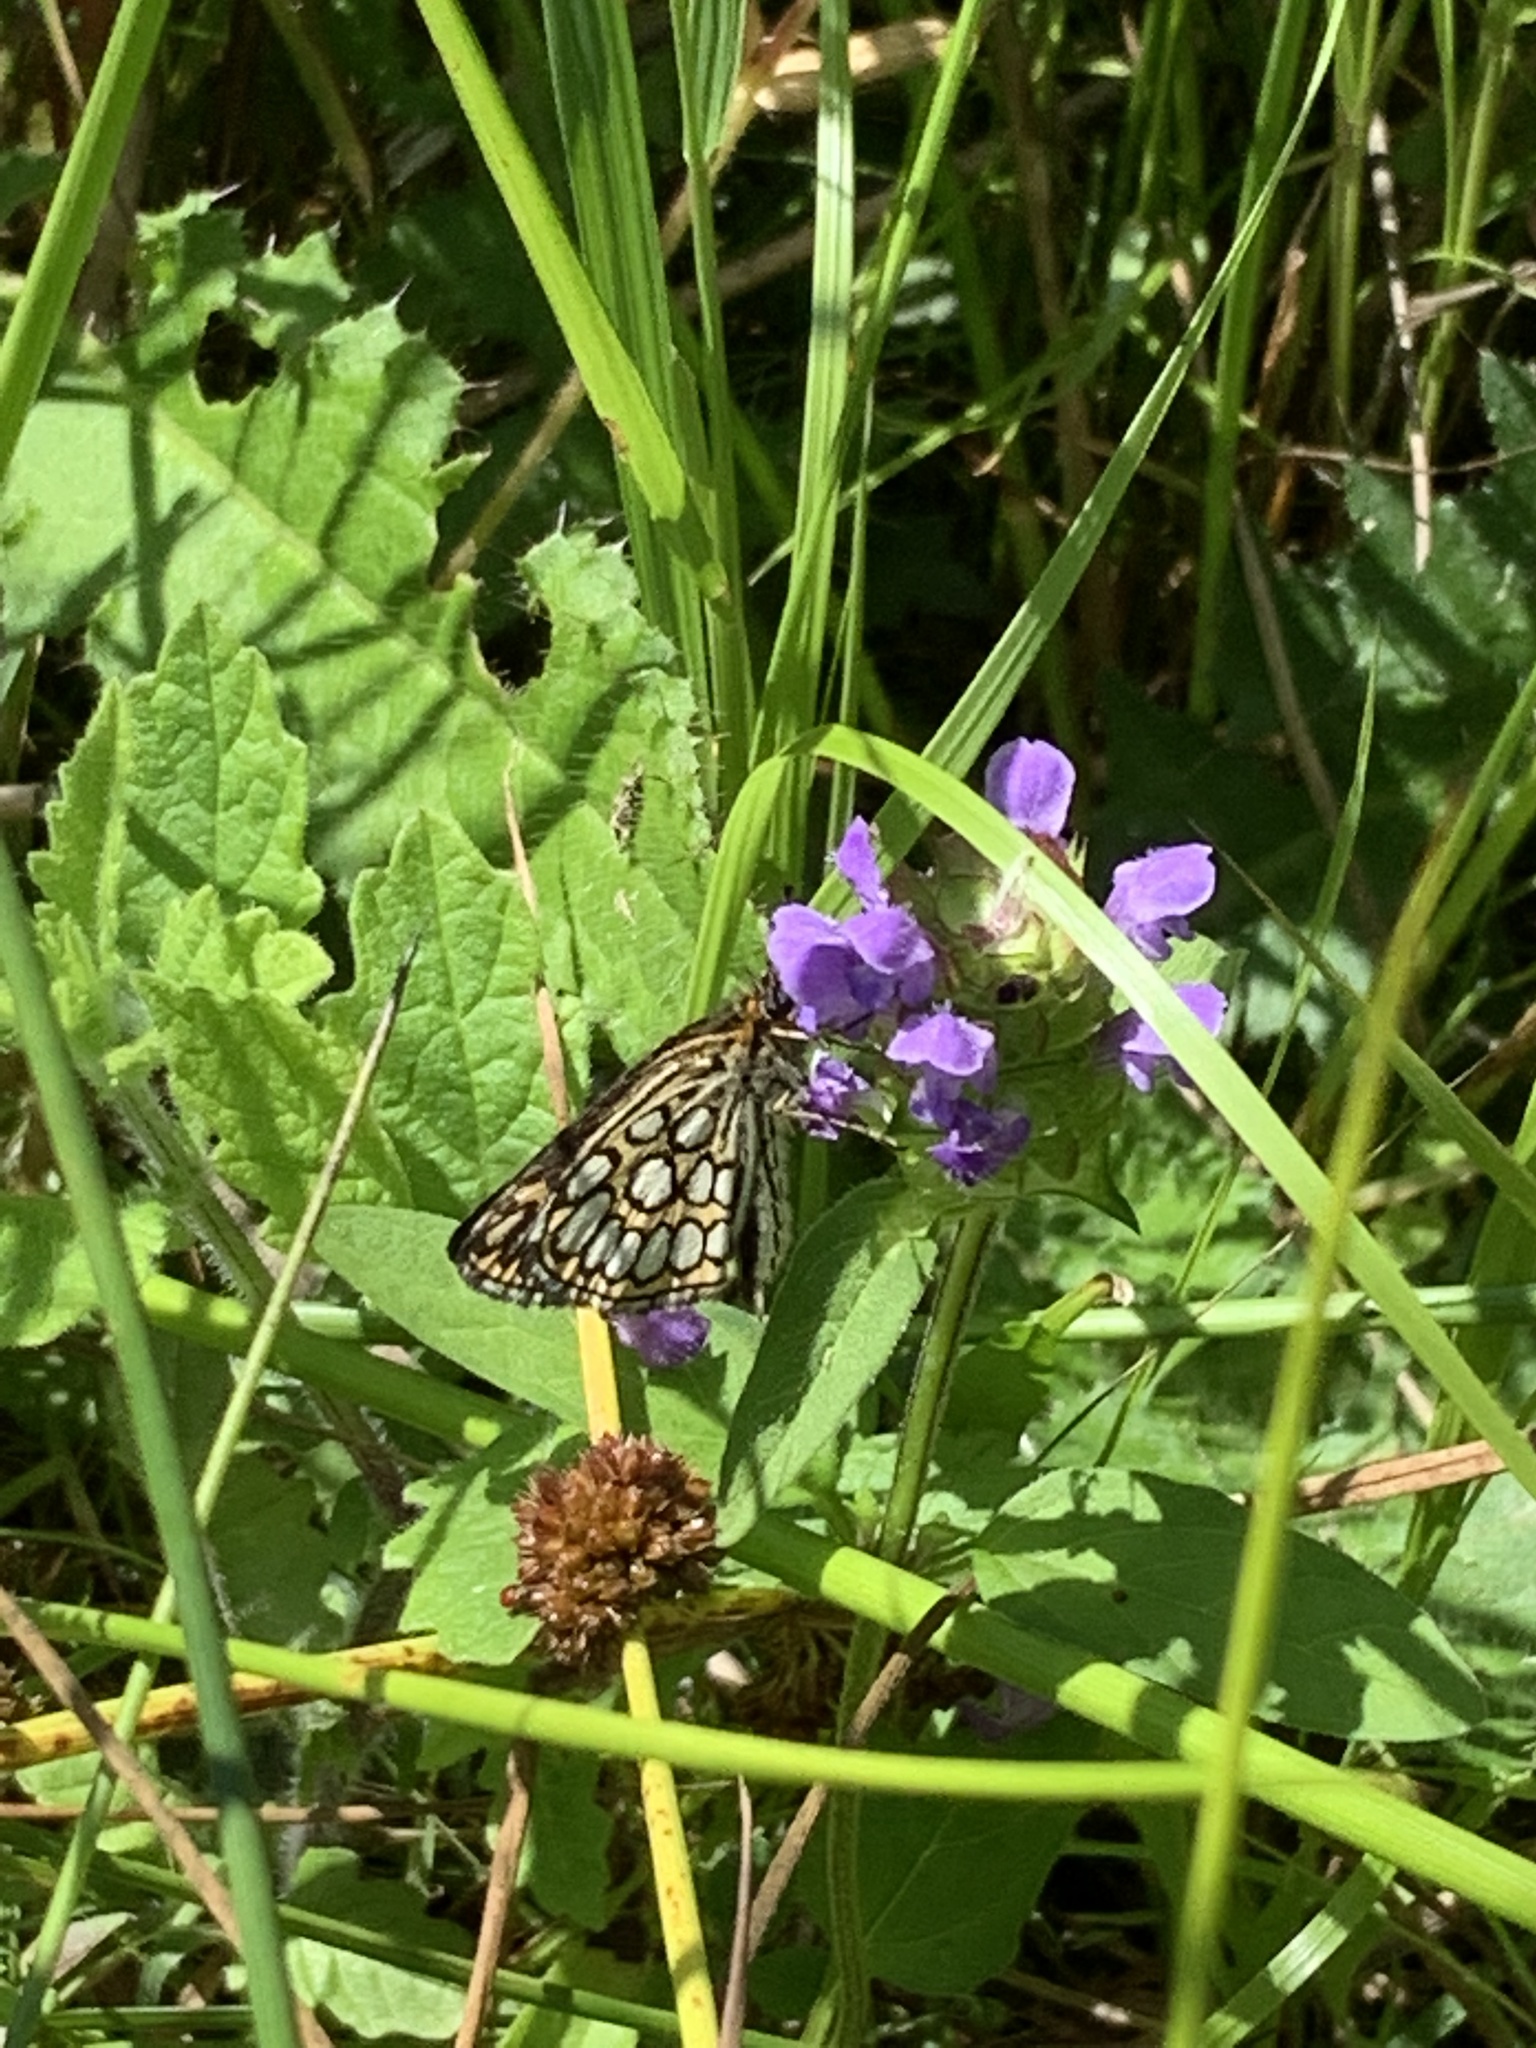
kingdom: Animalia
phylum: Arthropoda
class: Insecta
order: Lepidoptera
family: Hesperiidae
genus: Heteropterus
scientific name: Heteropterus morpheus
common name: Large chequered skipper
